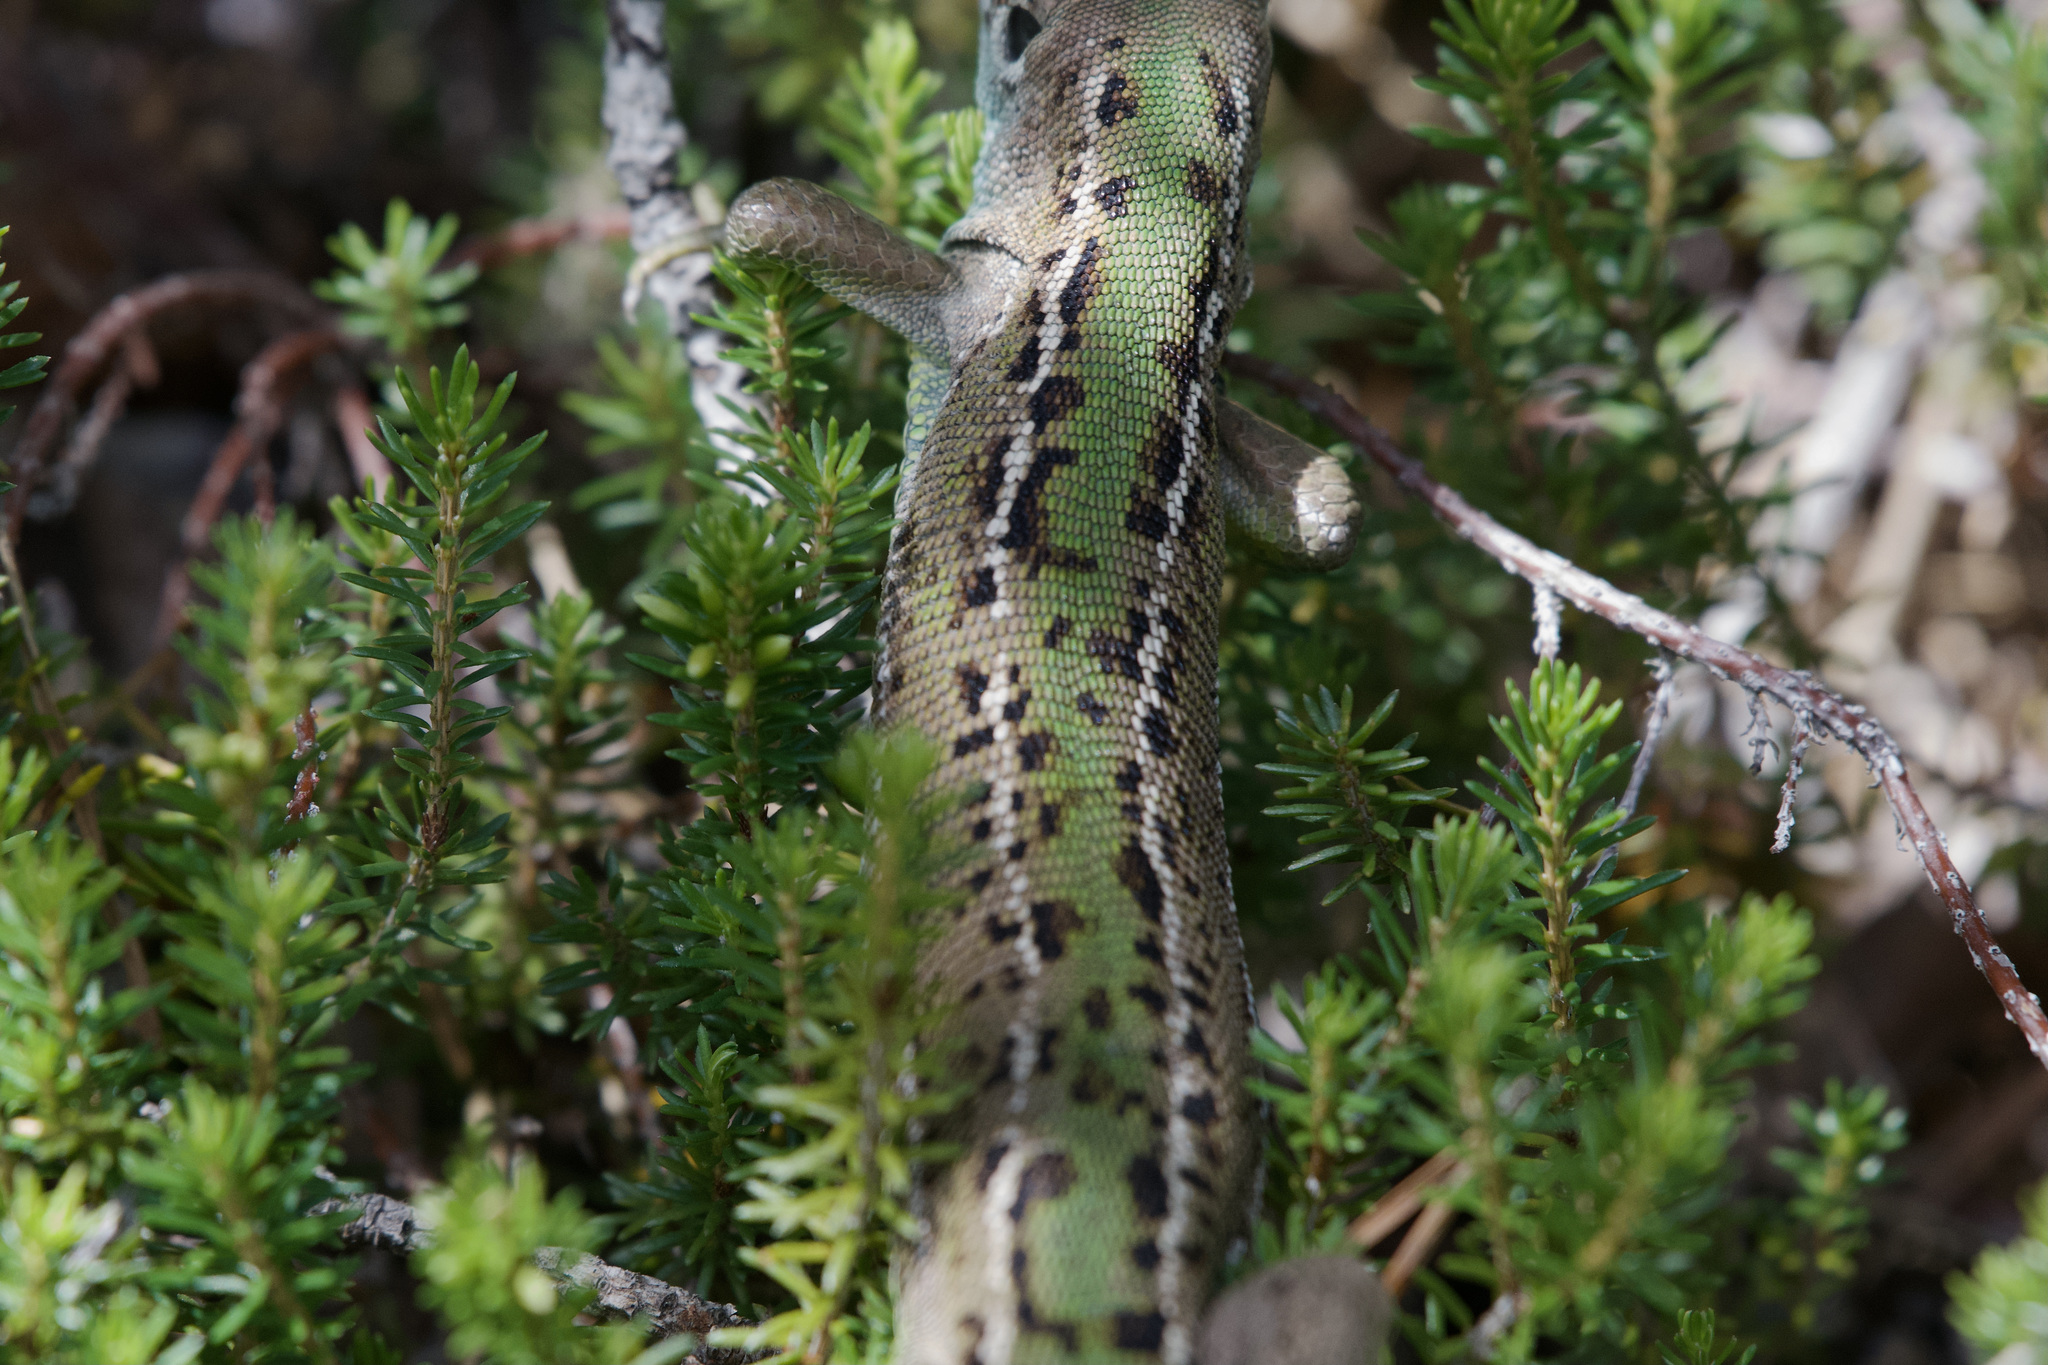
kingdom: Animalia
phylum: Chordata
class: Squamata
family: Lacertidae
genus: Lacerta
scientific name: Lacerta bilineata
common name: Western green lizard
